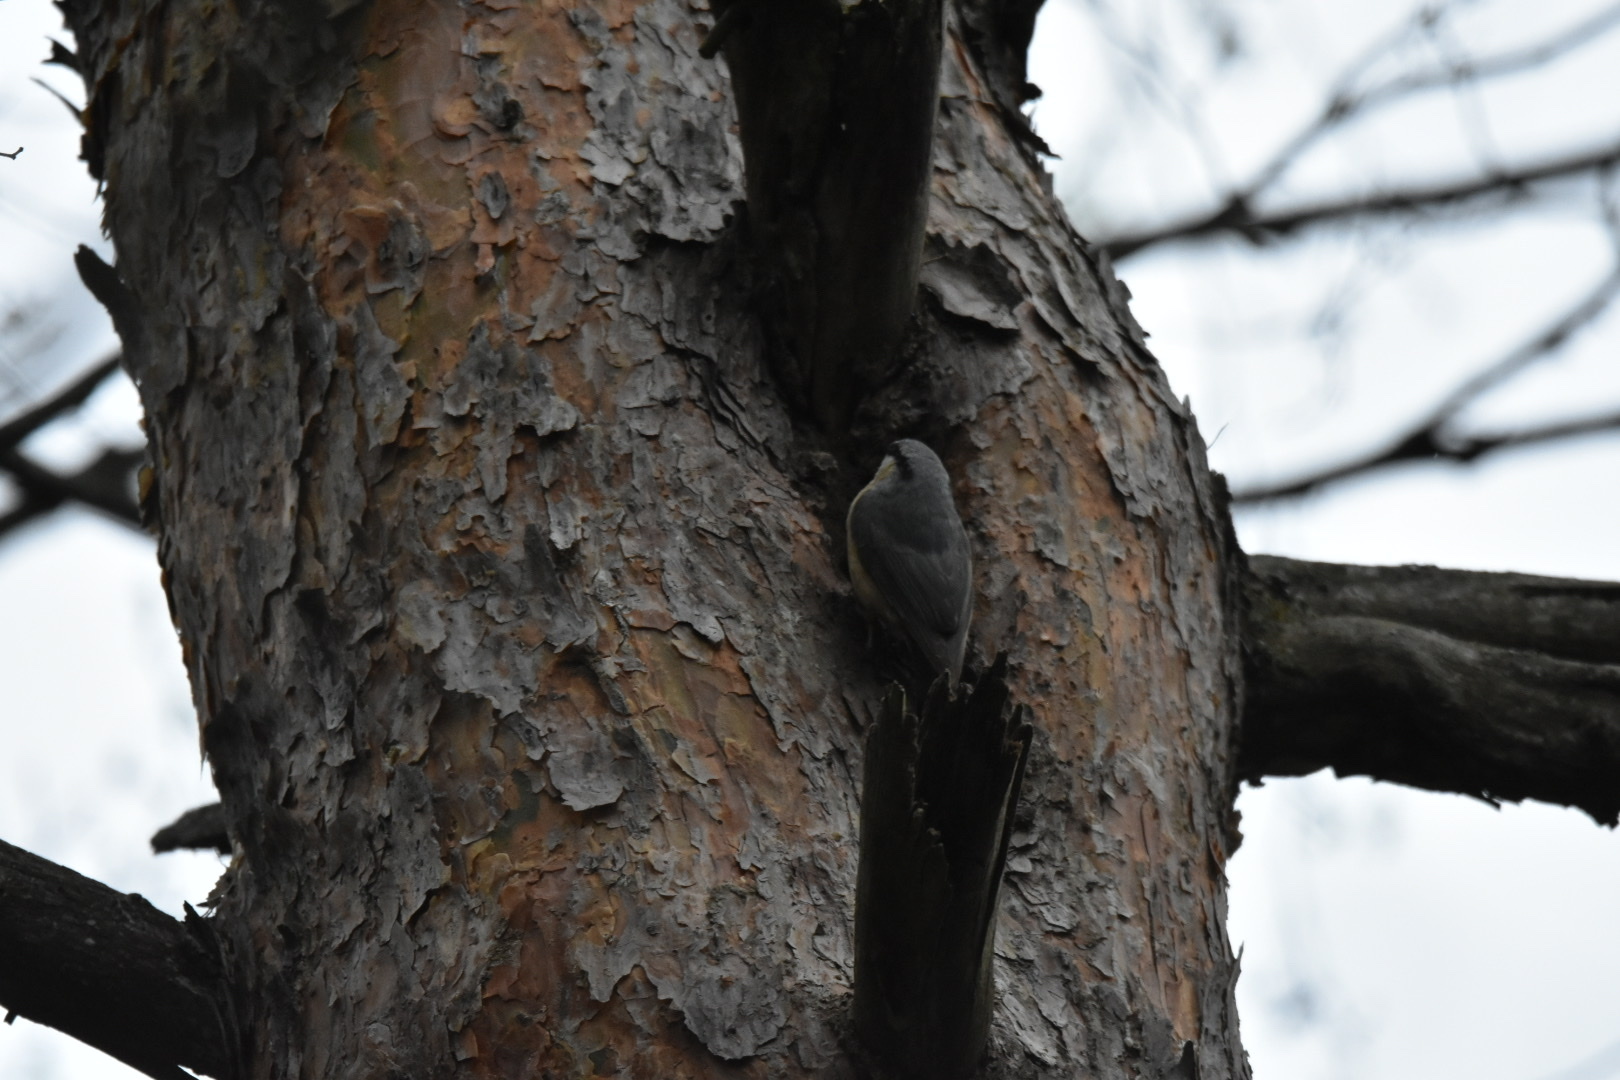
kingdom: Animalia
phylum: Chordata
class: Aves
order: Passeriformes
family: Sittidae
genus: Sitta
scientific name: Sitta europaea
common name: Eurasian nuthatch
